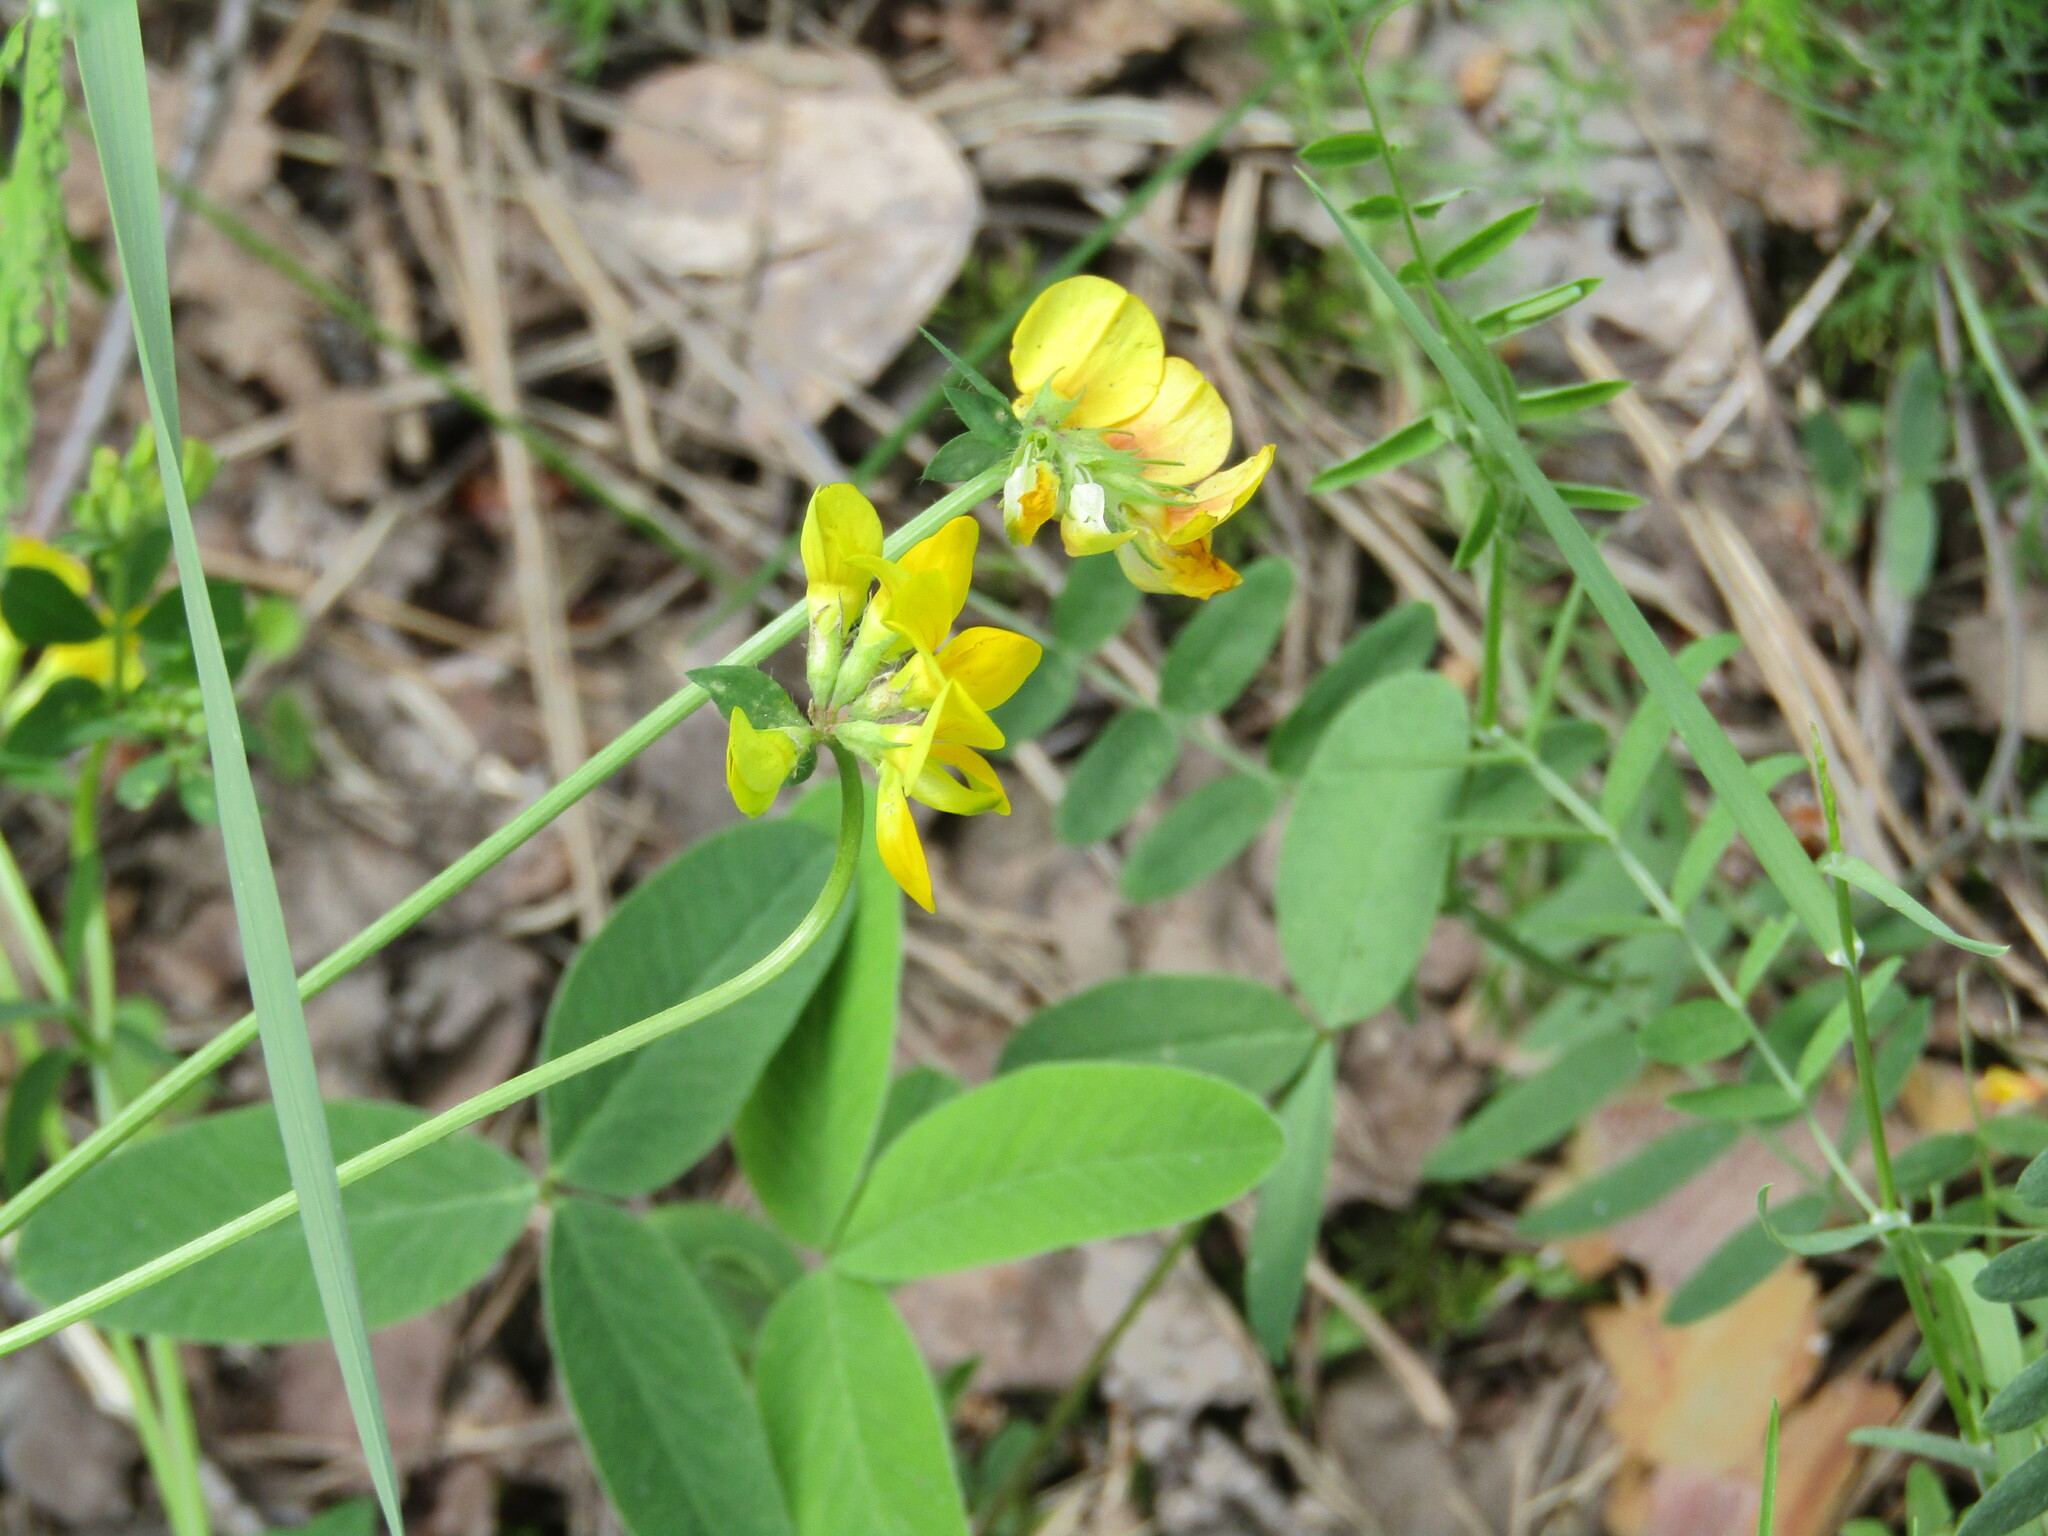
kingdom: Plantae
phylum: Tracheophyta
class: Magnoliopsida
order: Fabales
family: Fabaceae
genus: Lotus
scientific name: Lotus corniculatus
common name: Common bird's-foot-trefoil
